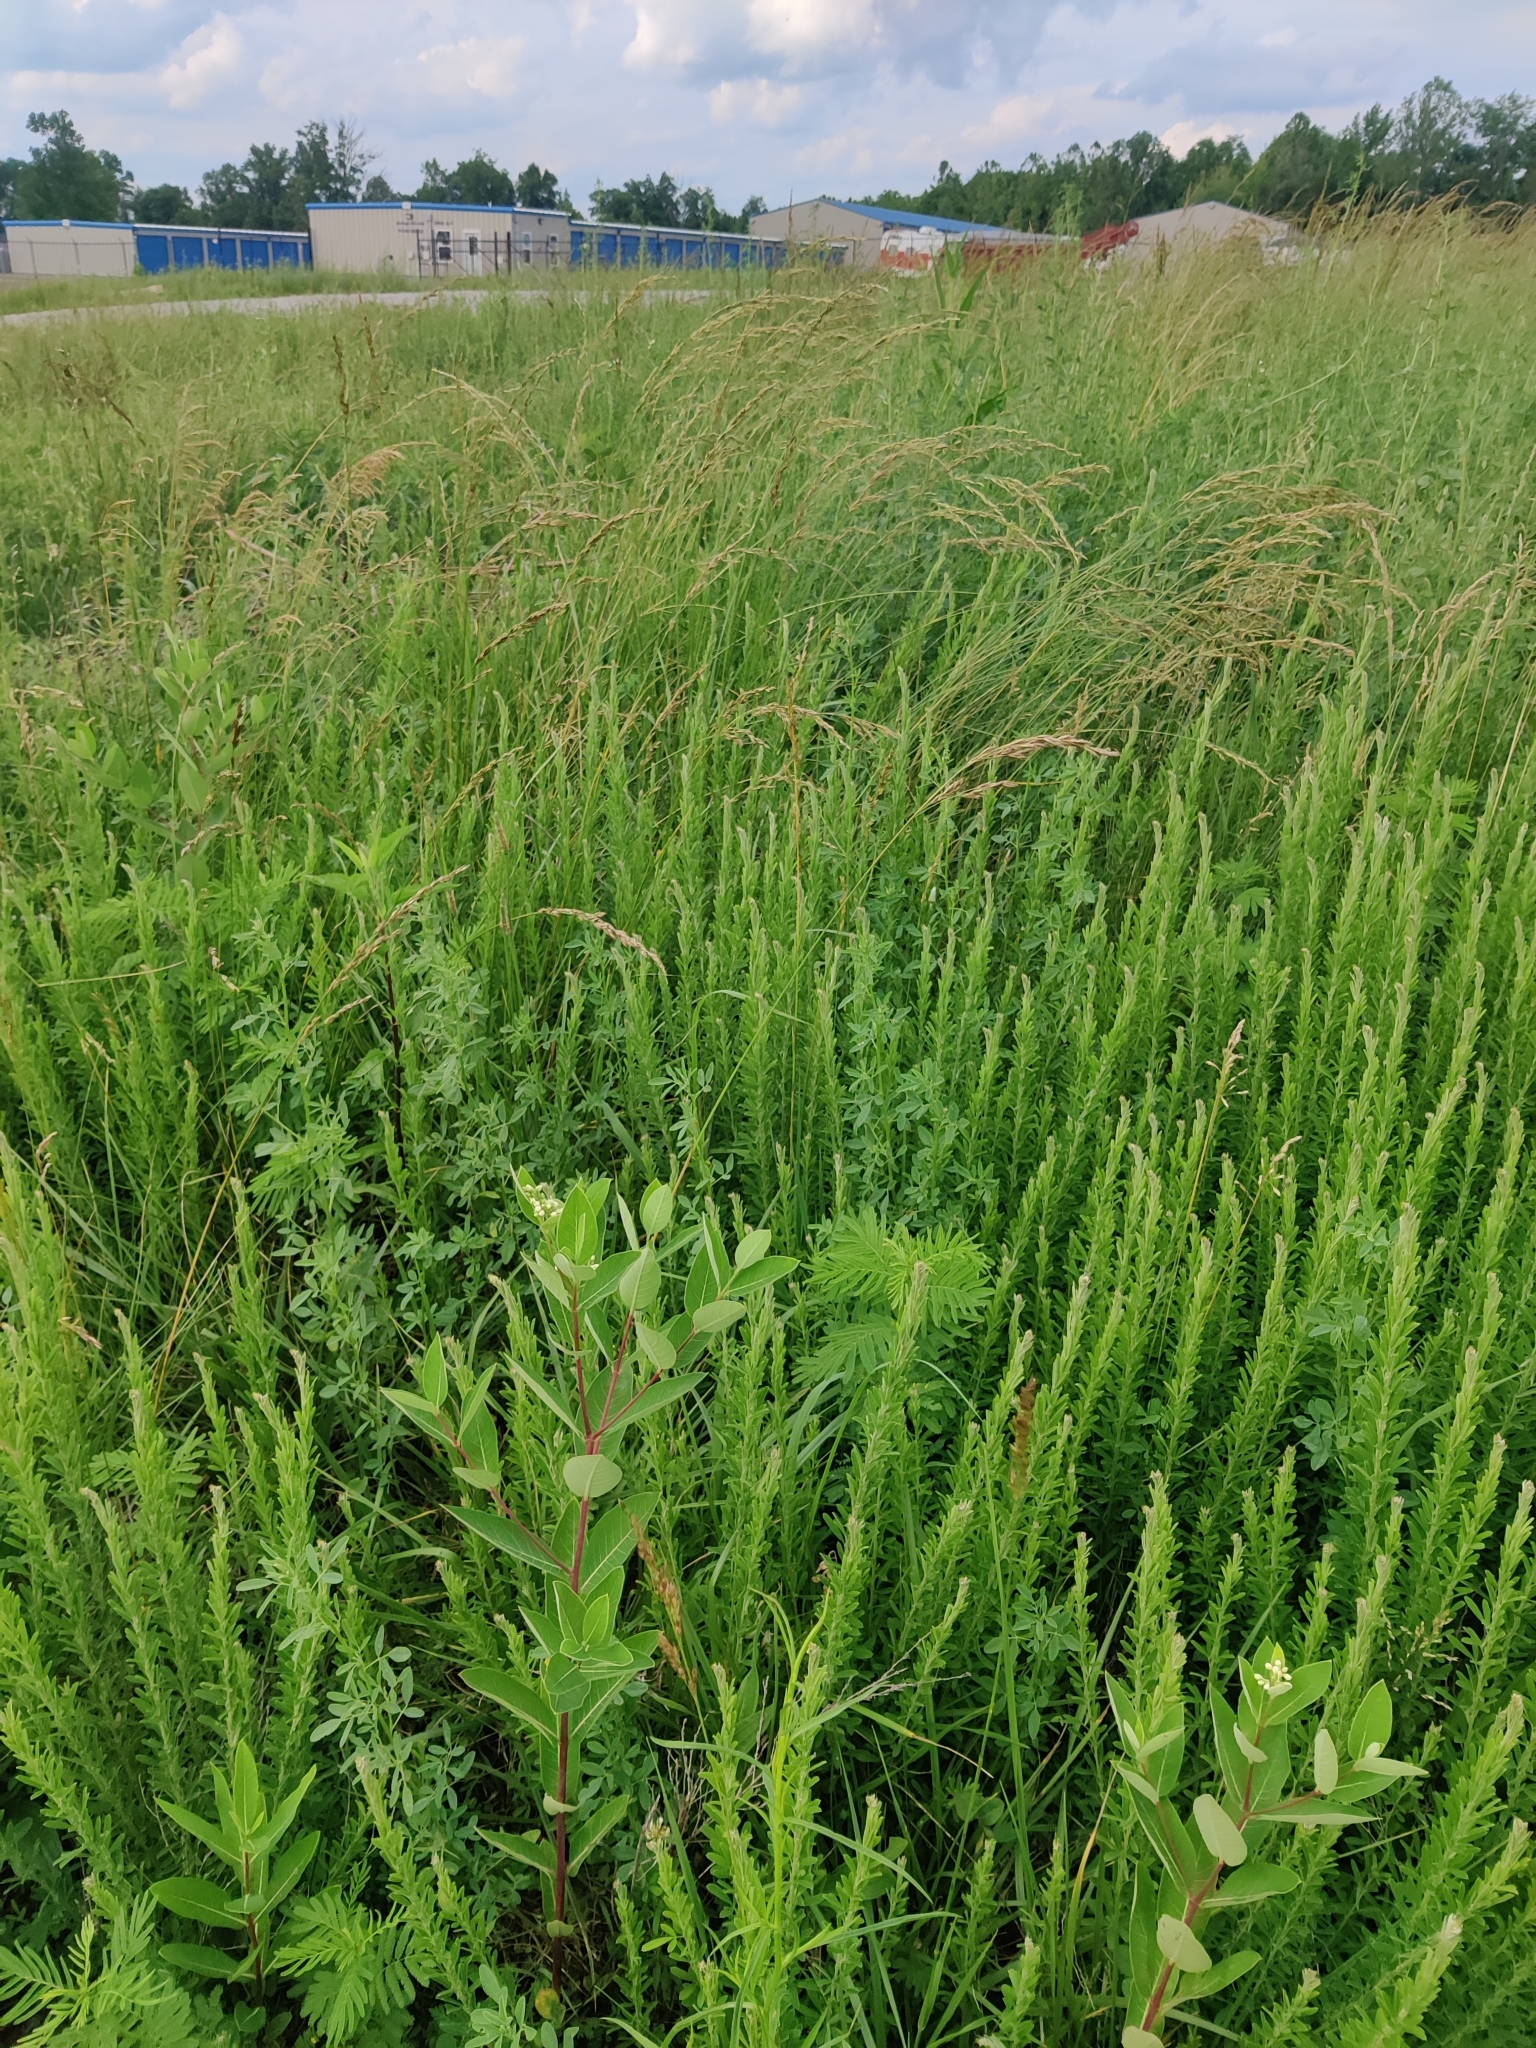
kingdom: Plantae
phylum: Tracheophyta
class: Magnoliopsida
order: Gentianales
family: Apocynaceae
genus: Apocynum
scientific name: Apocynum cannabinum
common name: Hemp dogbane
